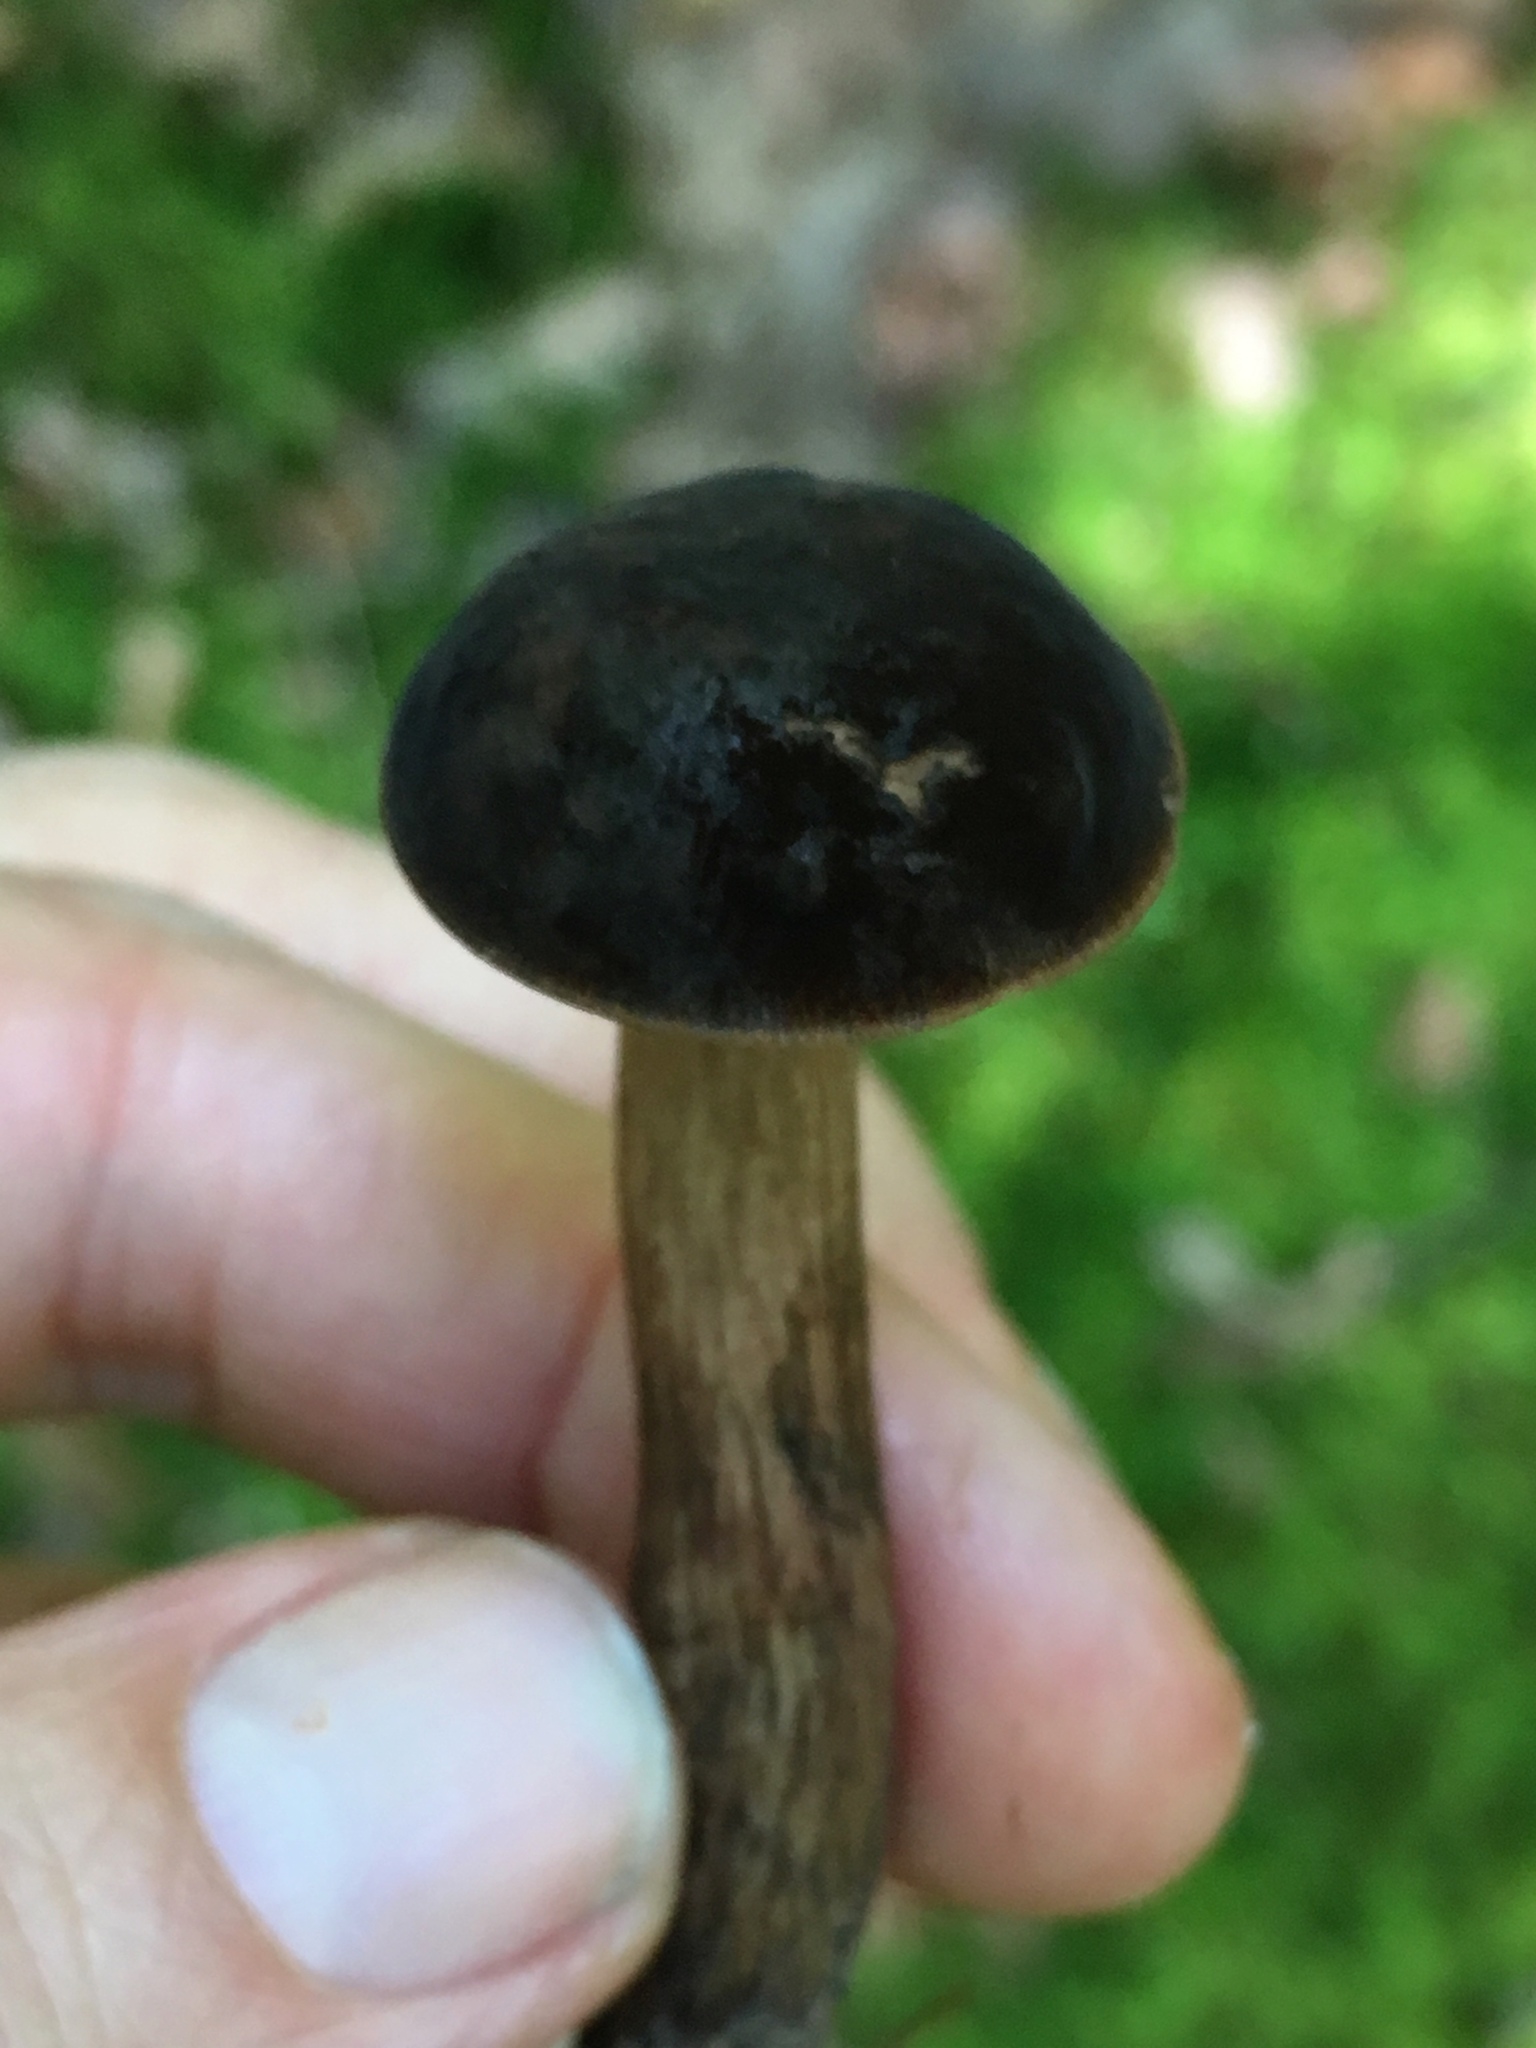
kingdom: Fungi
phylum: Basidiomycota
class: Agaricomycetes
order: Boletales
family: Boletaceae
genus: Boletellus
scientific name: Boletellus chrysenteroides
